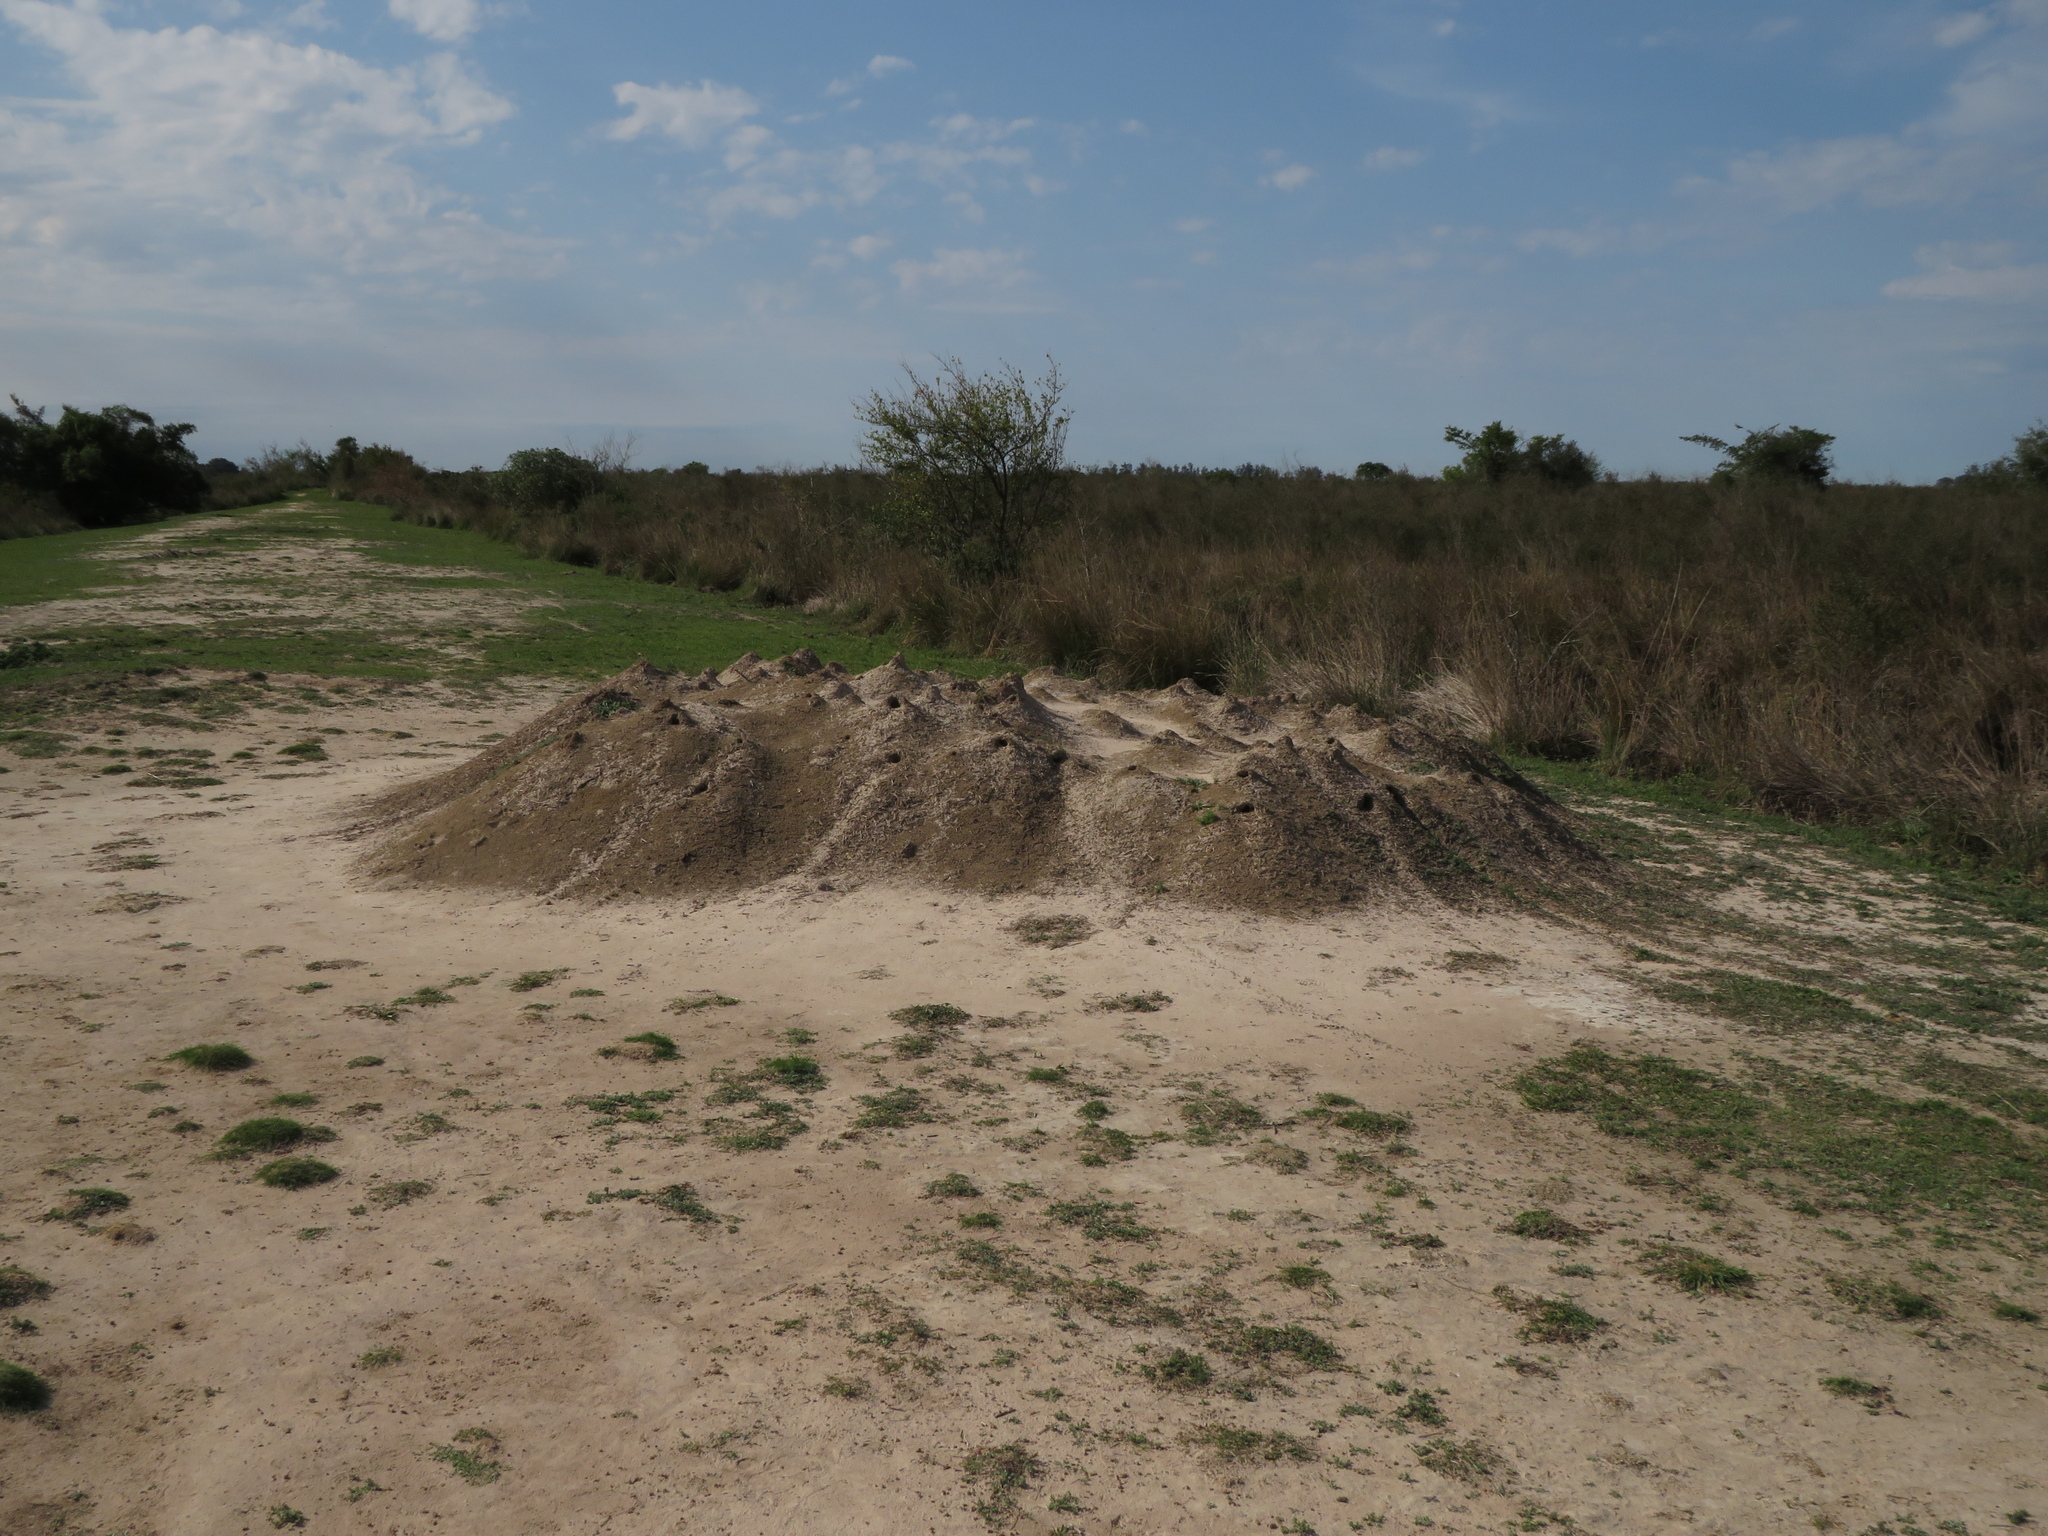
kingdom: Animalia
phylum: Arthropoda
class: Insecta
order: Hymenoptera
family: Formicidae
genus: Atta
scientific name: Atta vollenweideri
